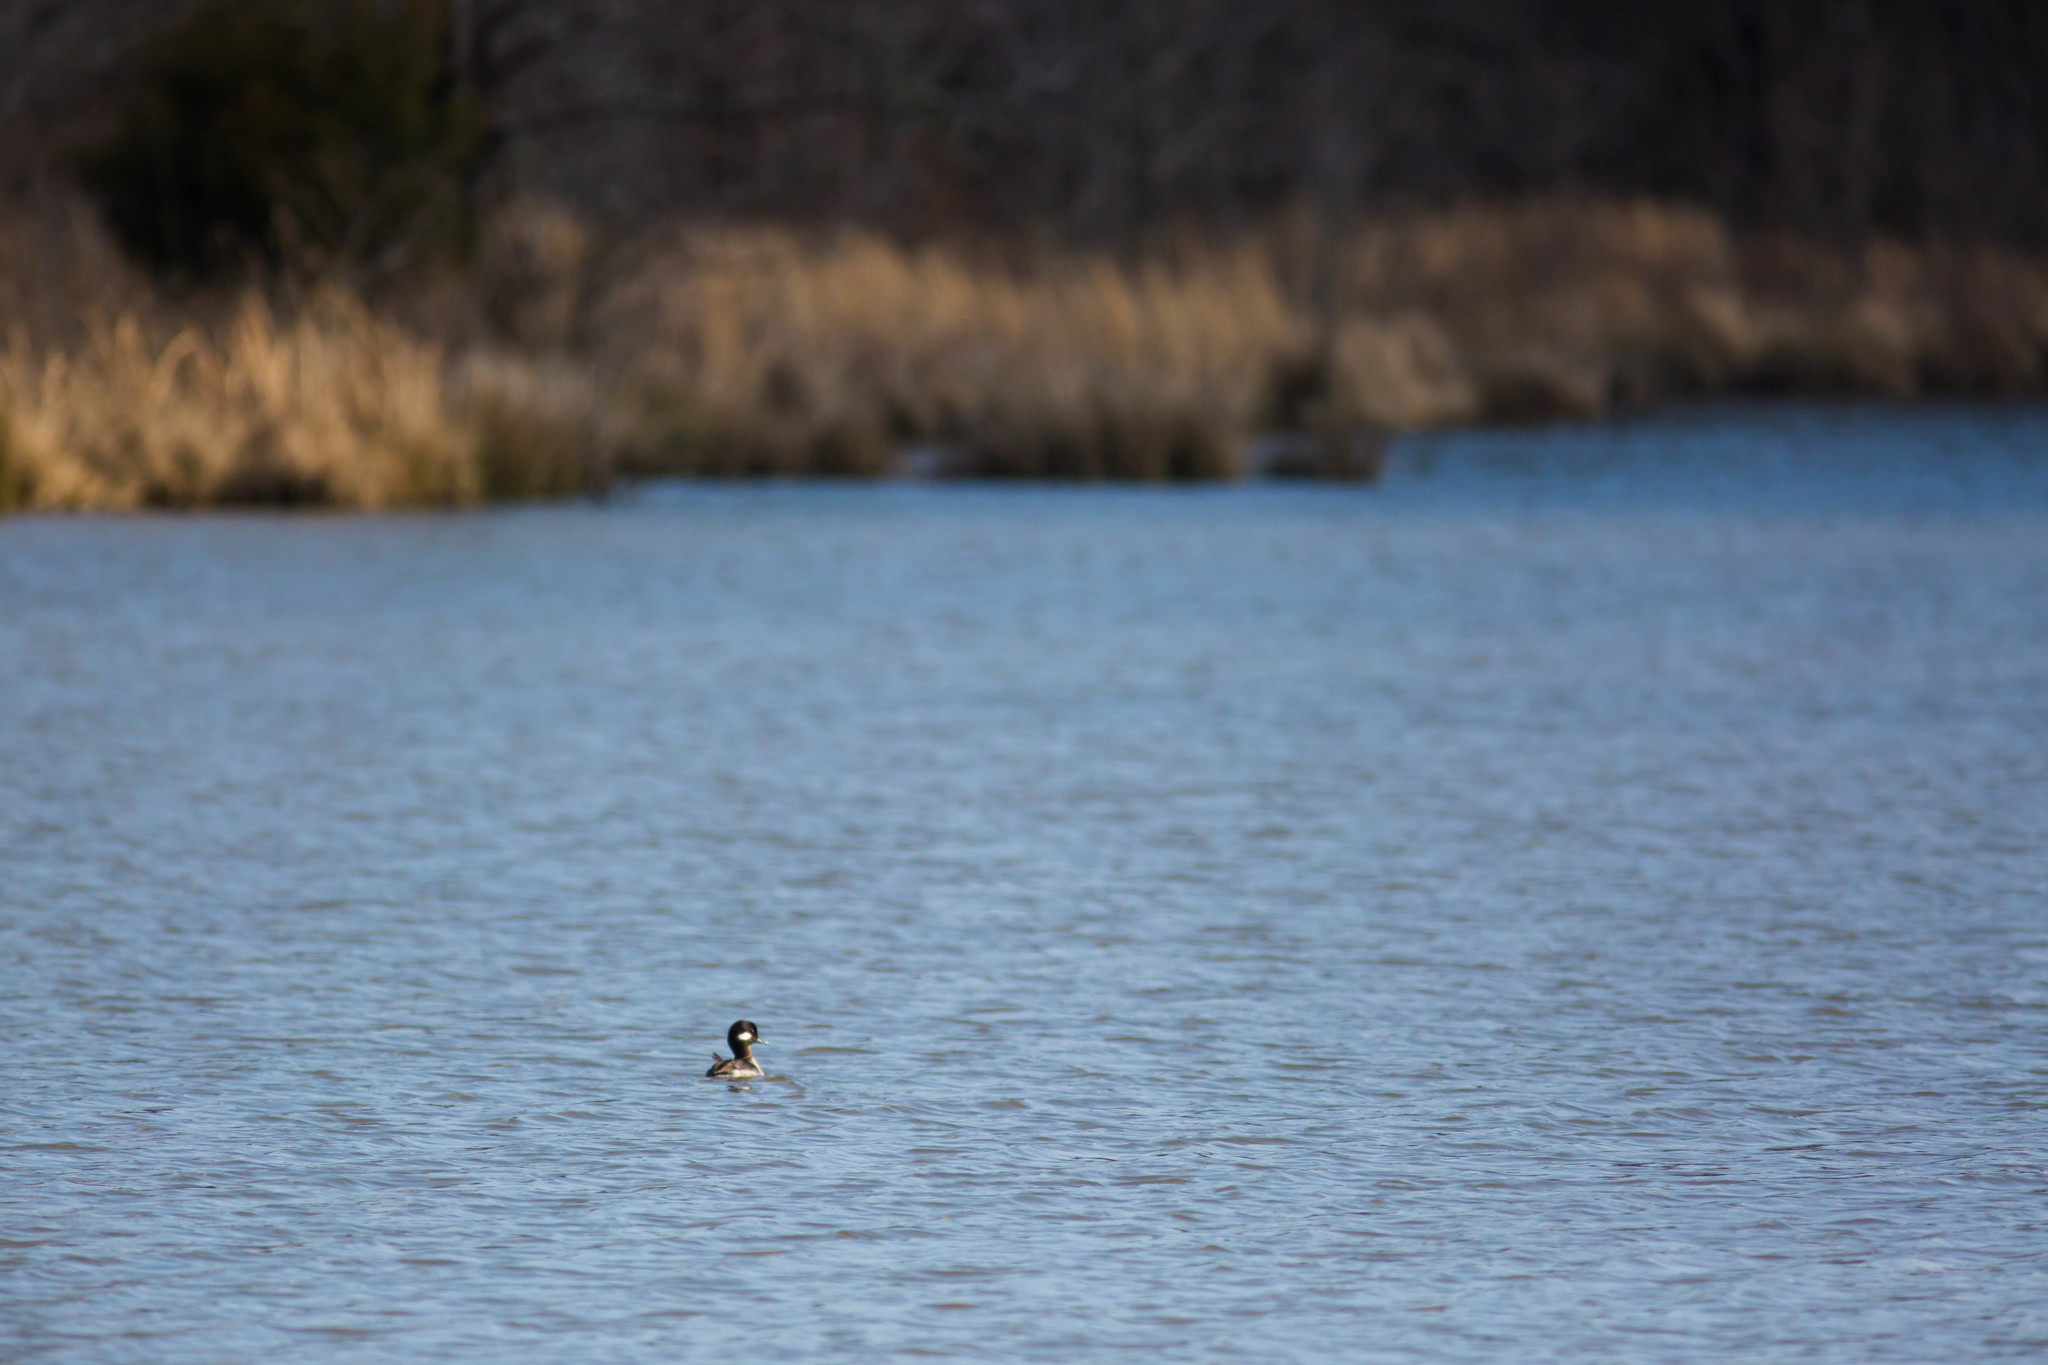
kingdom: Animalia
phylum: Chordata
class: Aves
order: Anseriformes
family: Anatidae
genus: Bucephala
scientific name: Bucephala albeola
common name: Bufflehead
